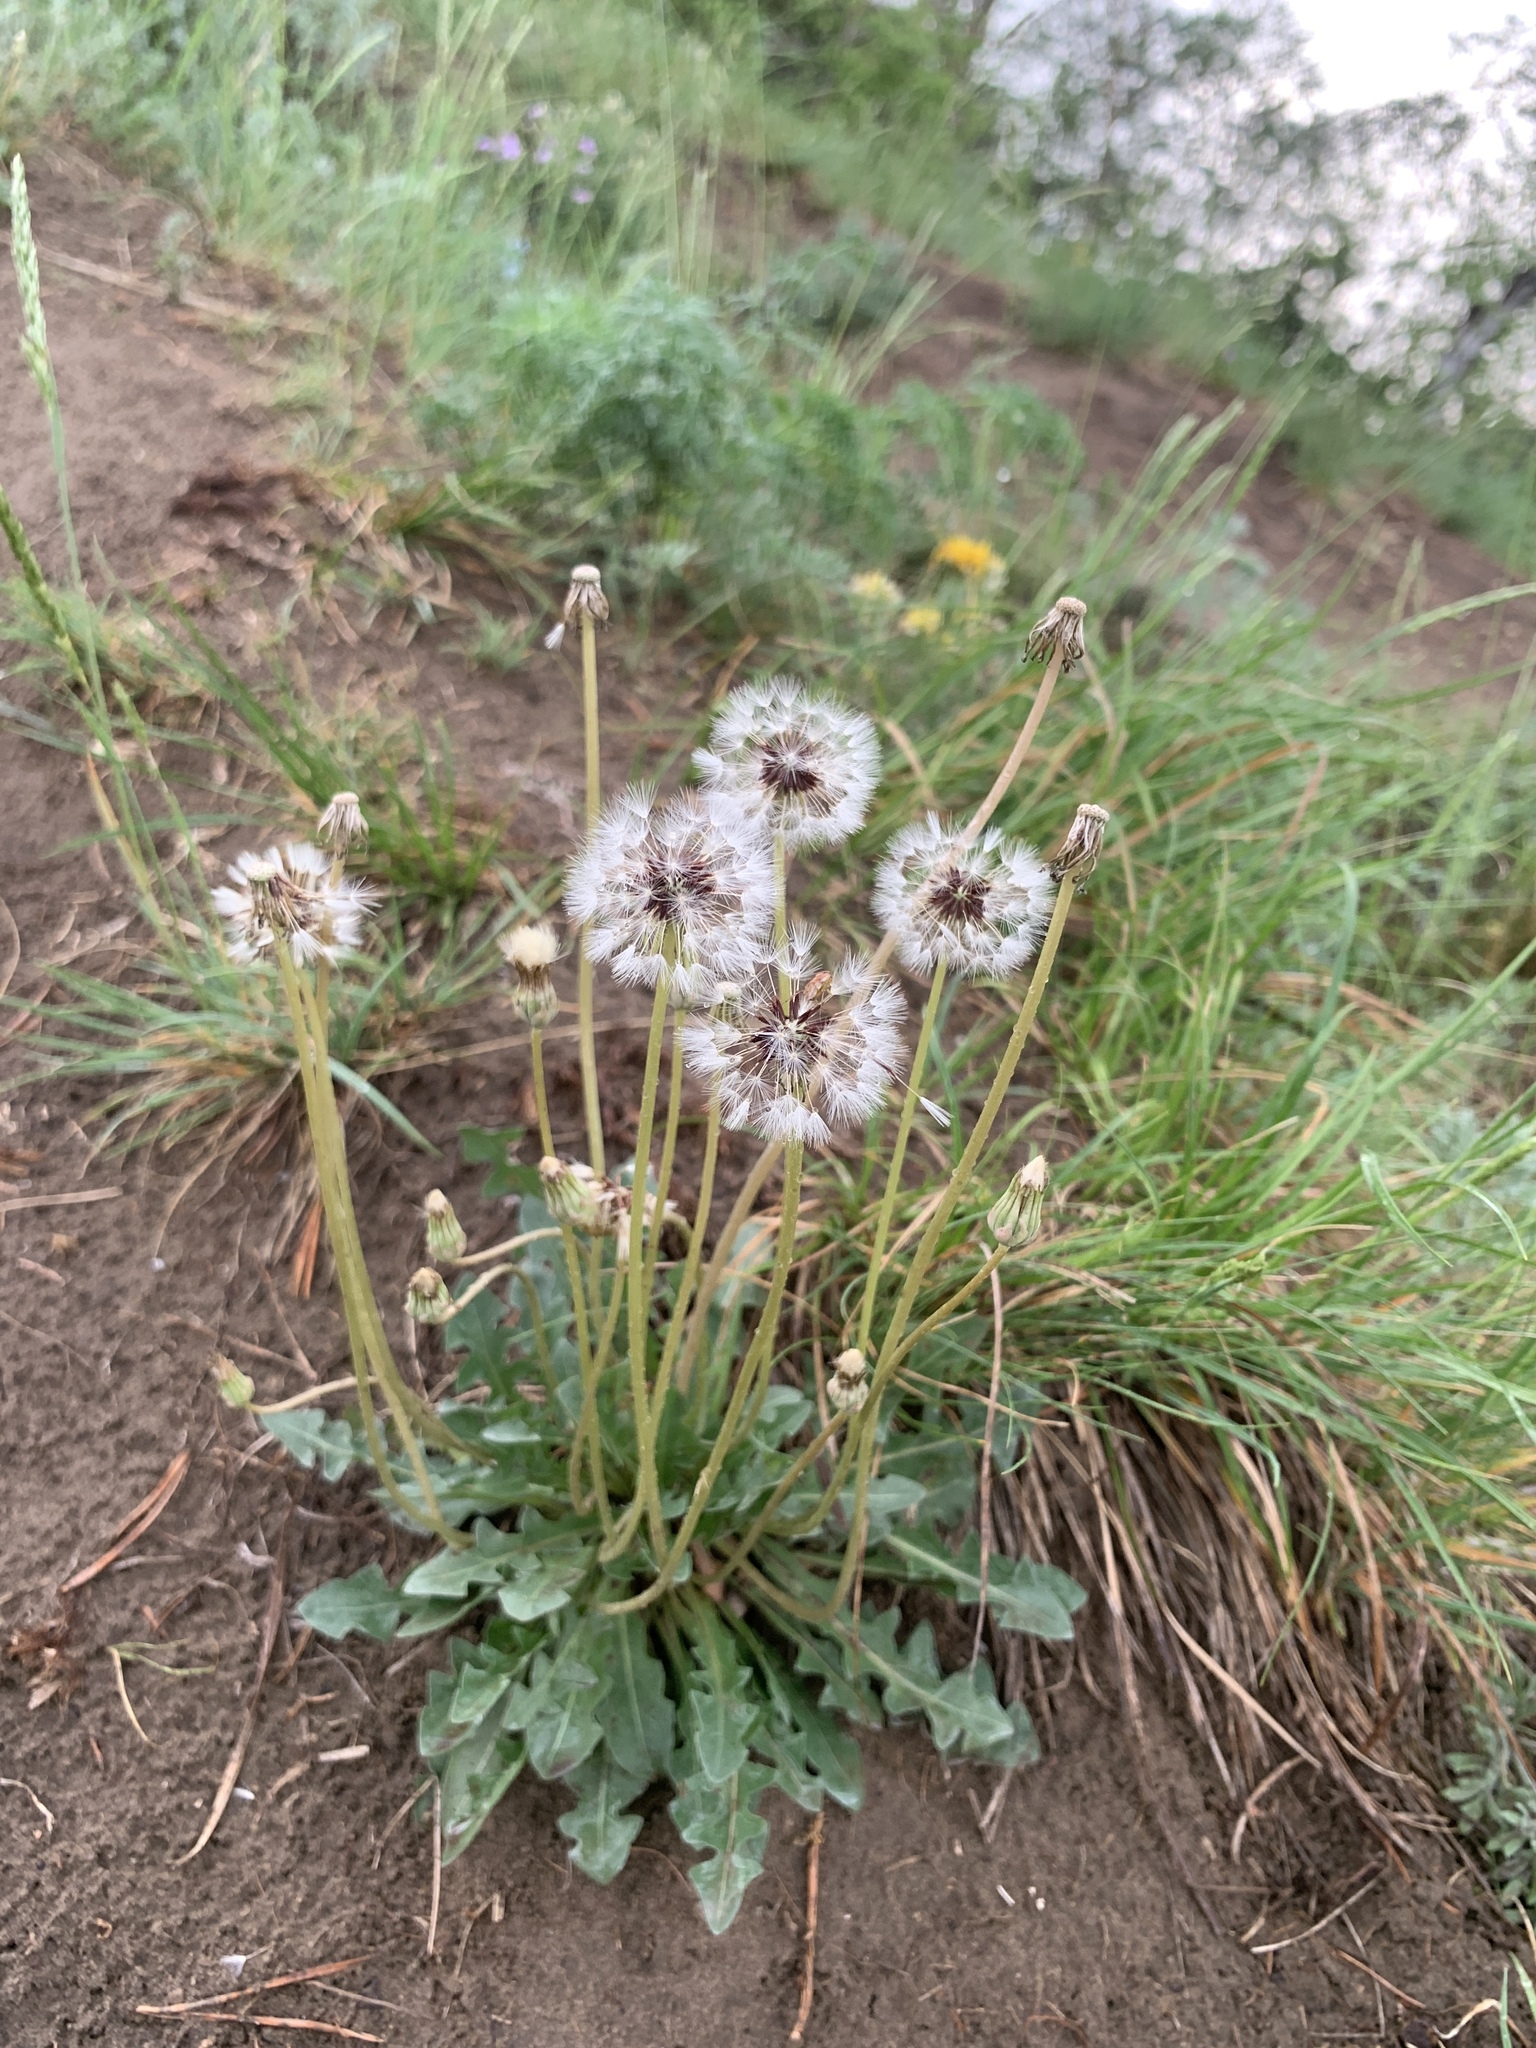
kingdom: Plantae
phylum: Tracheophyta
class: Magnoliopsida
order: Asterales
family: Asteraceae
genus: Taraxacum
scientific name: Taraxacum officinale
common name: Common dandelion
